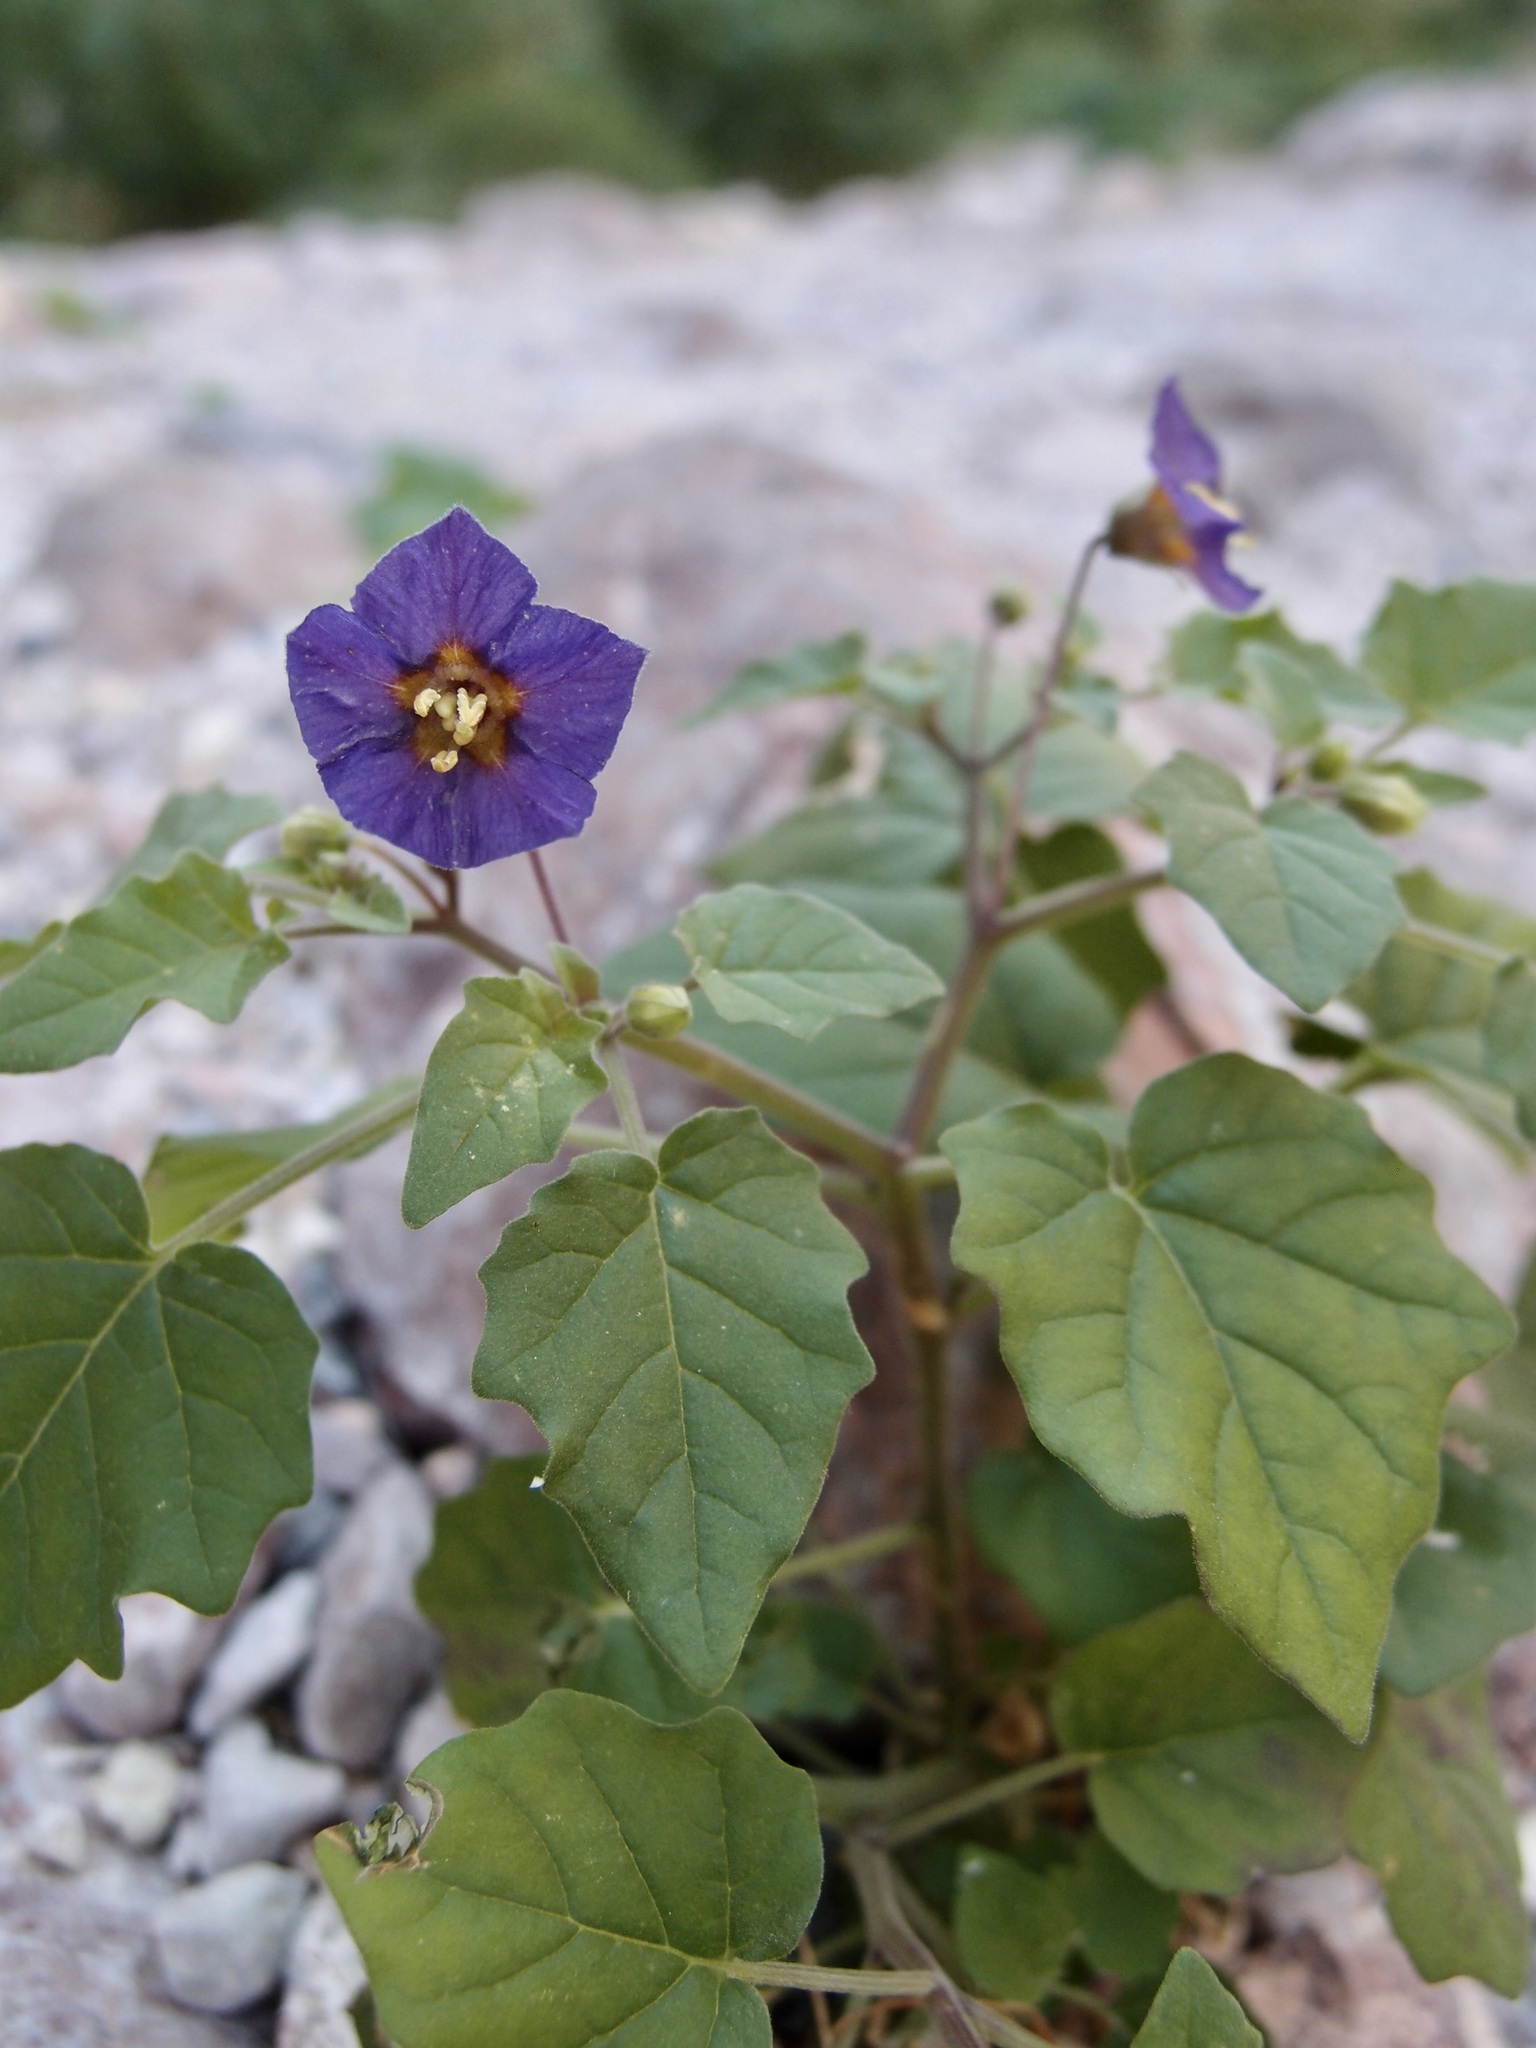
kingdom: Plantae
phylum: Tracheophyta
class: Magnoliopsida
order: Solanales
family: Solanaceae
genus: Physalis
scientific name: Physalis purpurea
